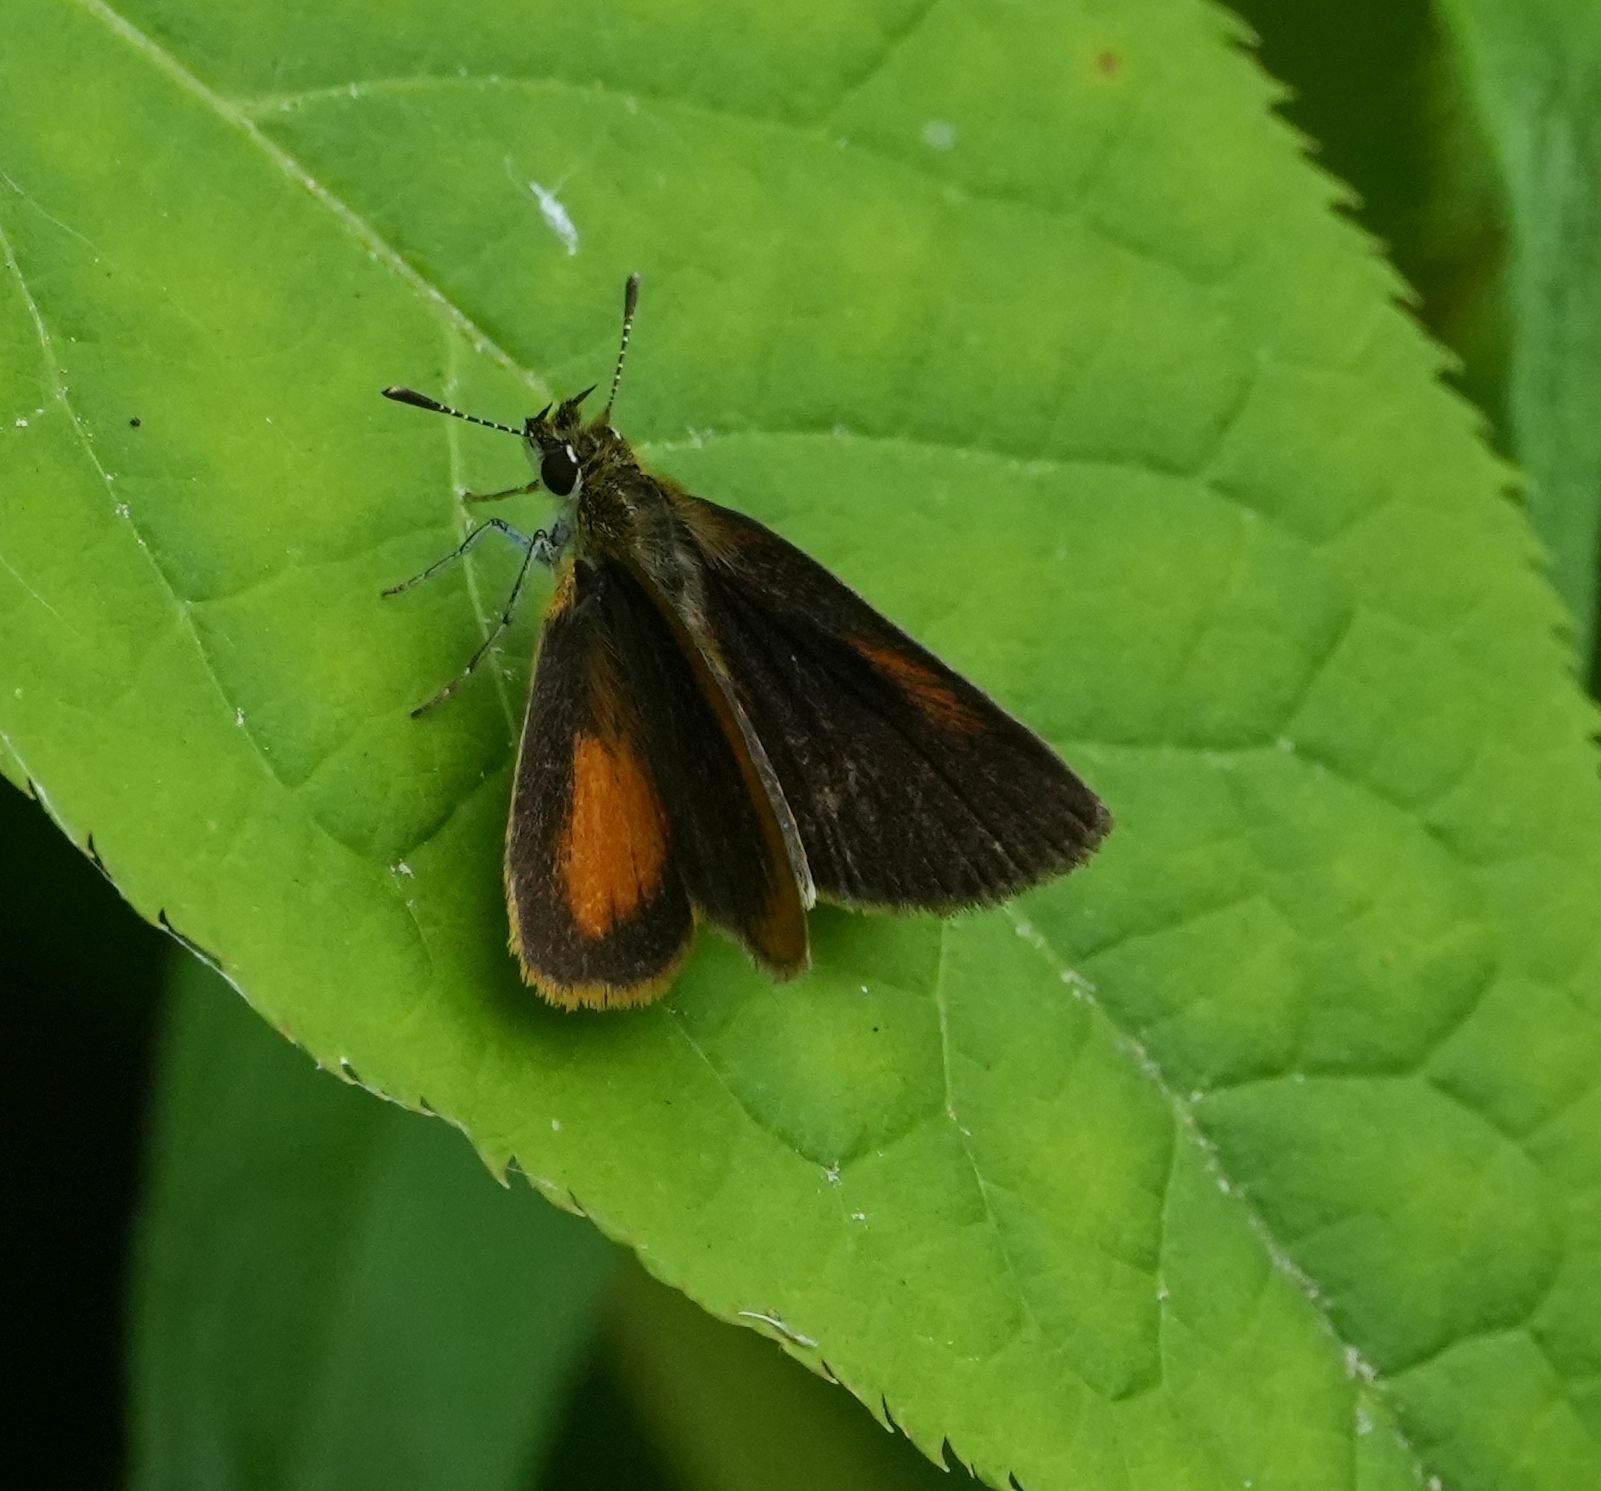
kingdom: Animalia
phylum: Arthropoda
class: Insecta
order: Lepidoptera
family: Hesperiidae
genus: Ancyloxypha
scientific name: Ancyloxypha numitor
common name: Least skipper
